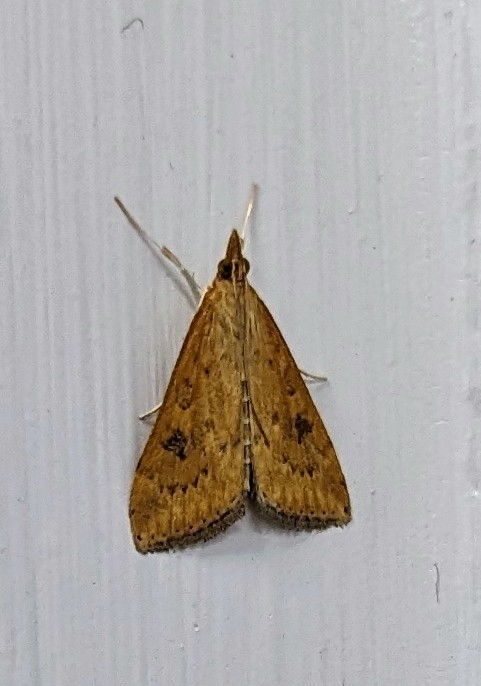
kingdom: Animalia
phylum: Arthropoda
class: Insecta
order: Lepidoptera
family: Crambidae
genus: Udea
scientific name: Udea ferrugalis
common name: Rusty dot
